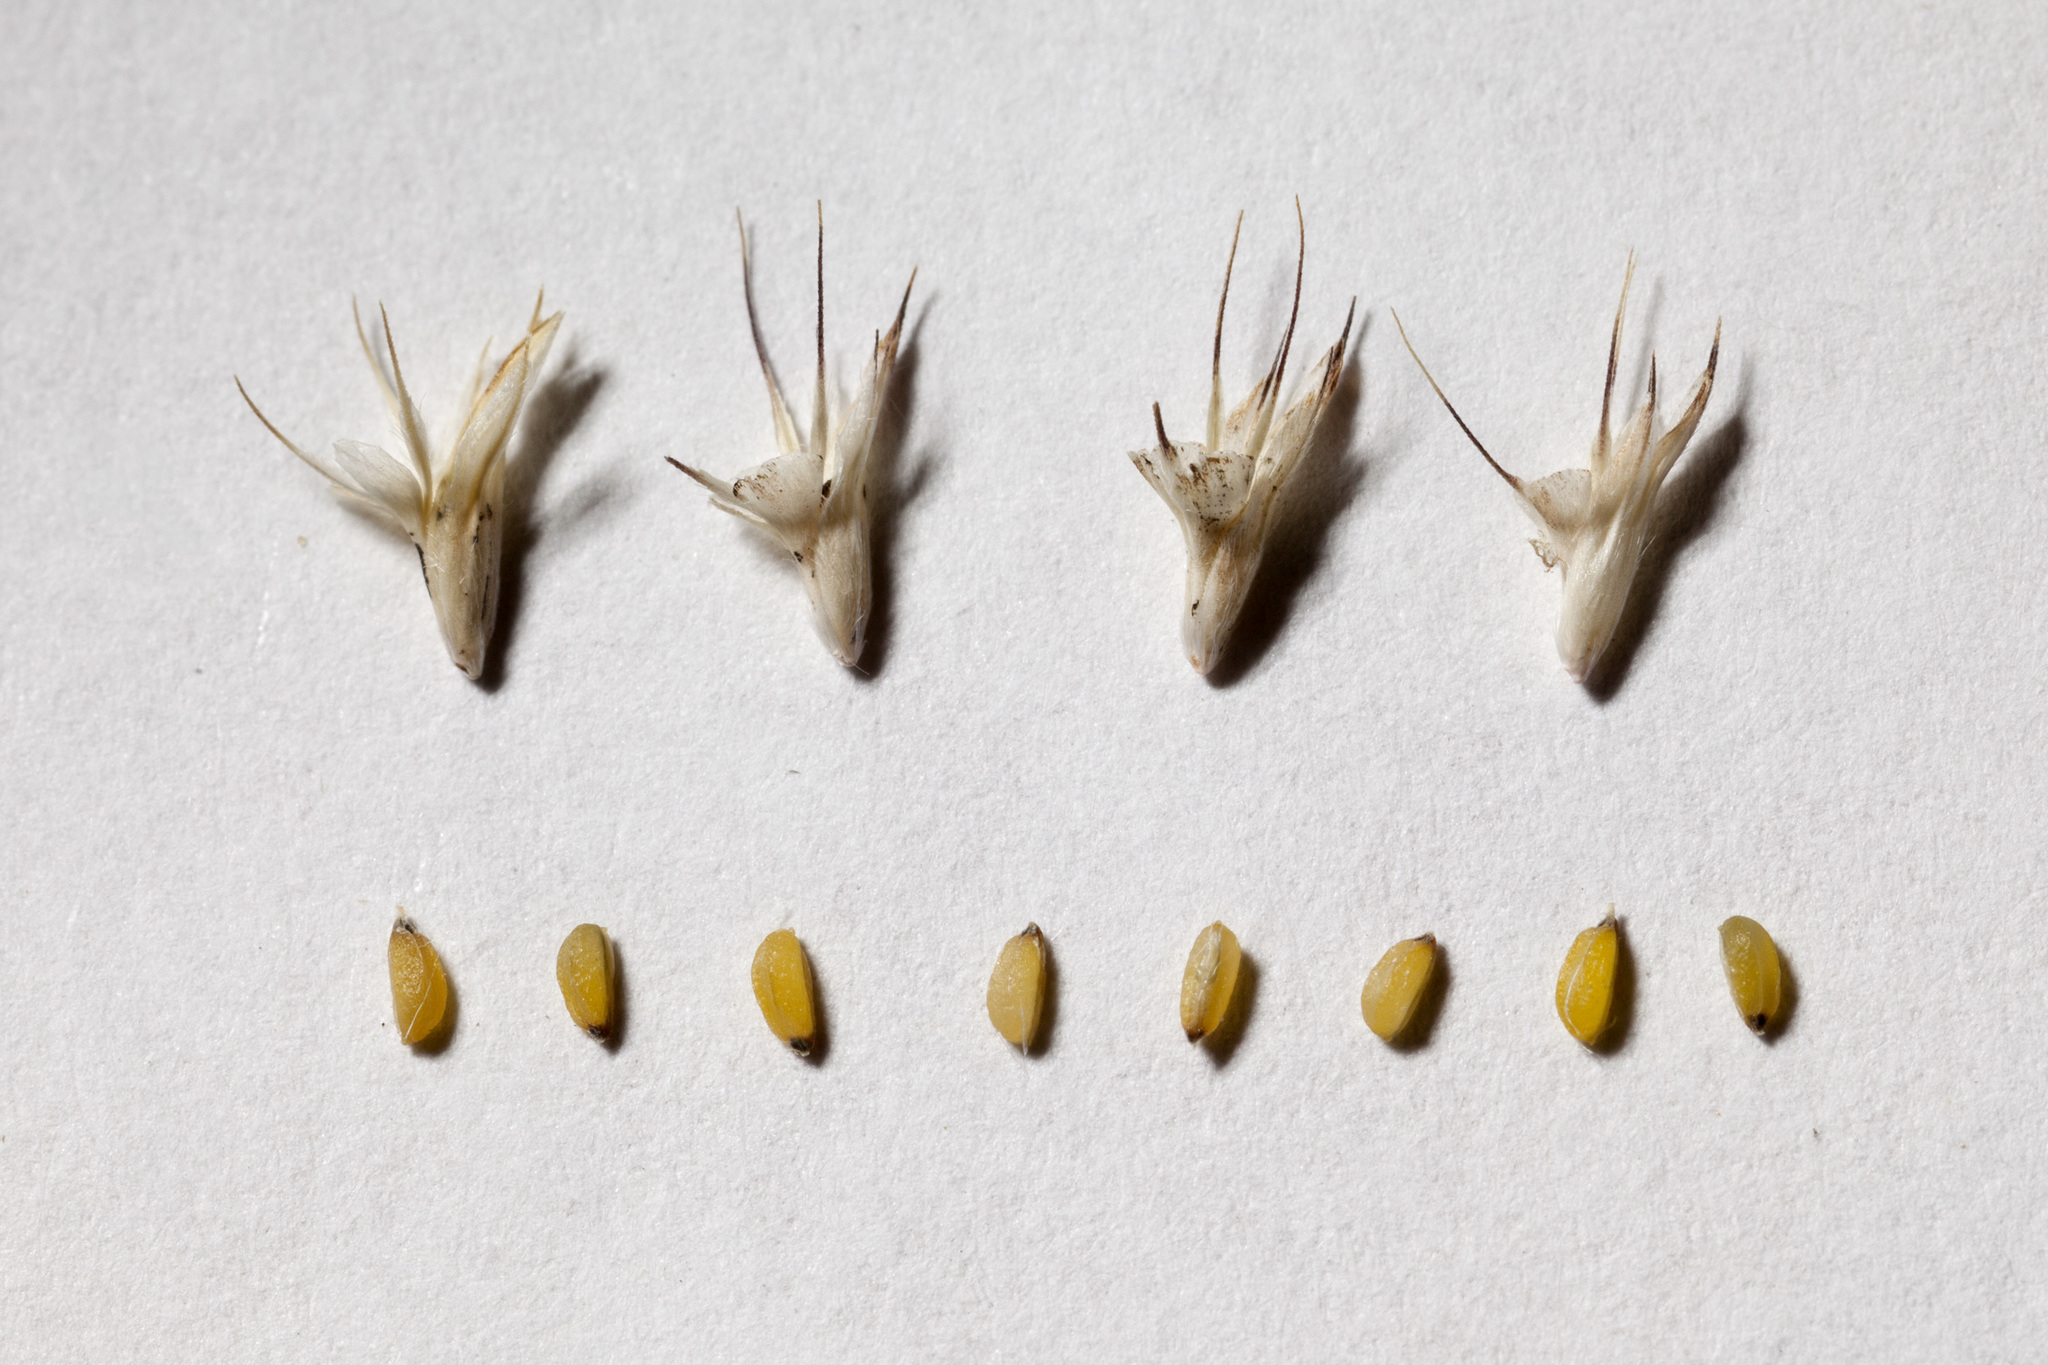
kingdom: Plantae
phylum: Tracheophyta
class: Liliopsida
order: Poales
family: Poaceae
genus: Bouteloua
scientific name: Bouteloua hirsuta
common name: Hairy grama
